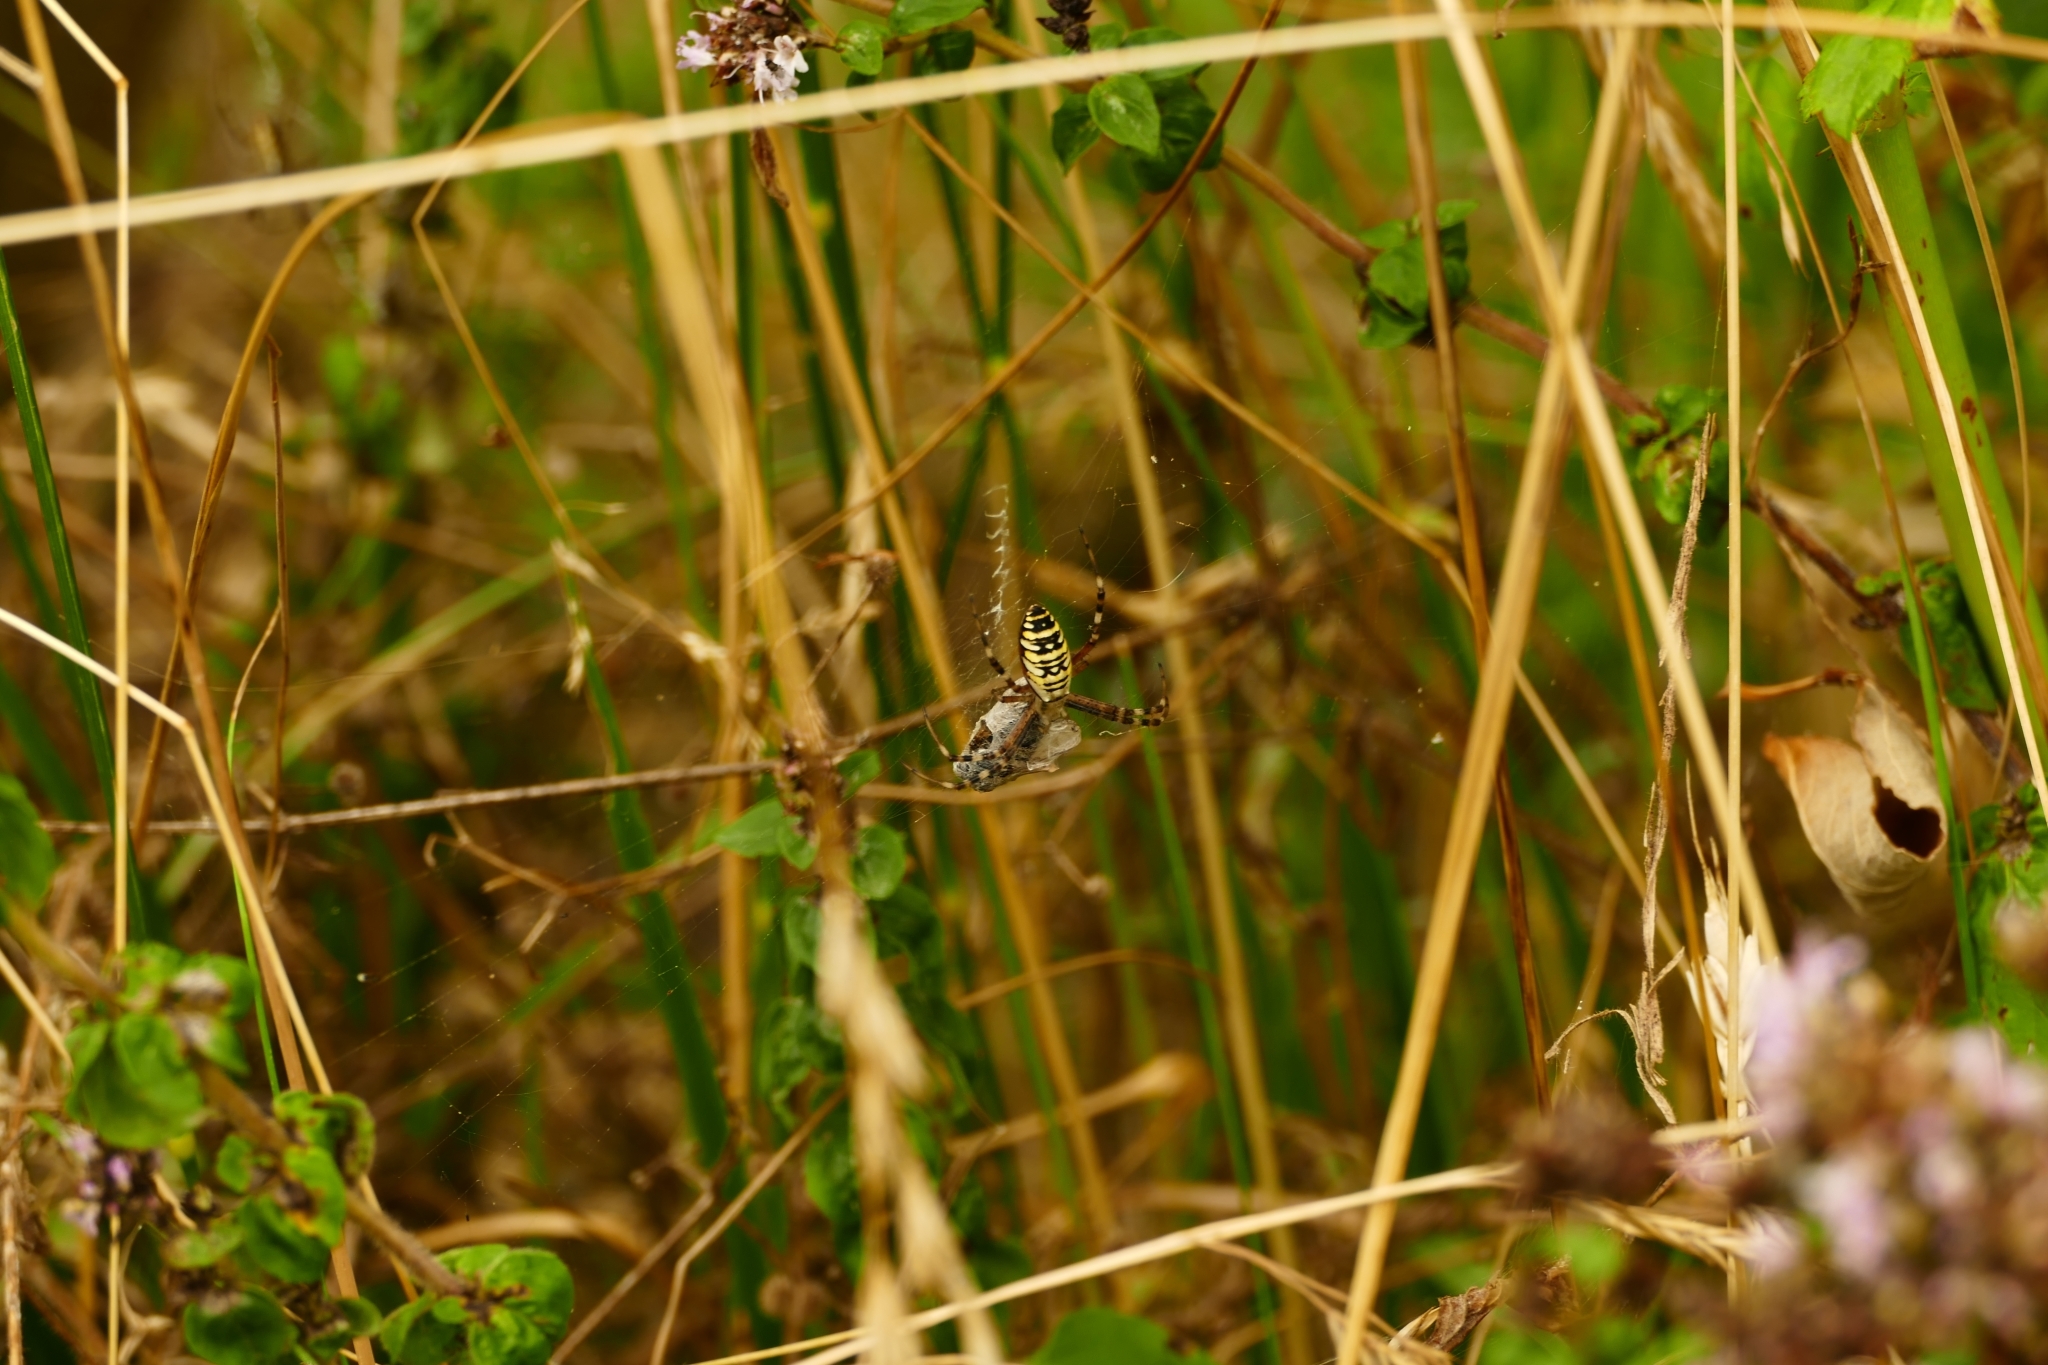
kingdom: Animalia
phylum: Arthropoda
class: Arachnida
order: Araneae
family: Araneidae
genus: Argiope
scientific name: Argiope bruennichi
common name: Wasp spider
